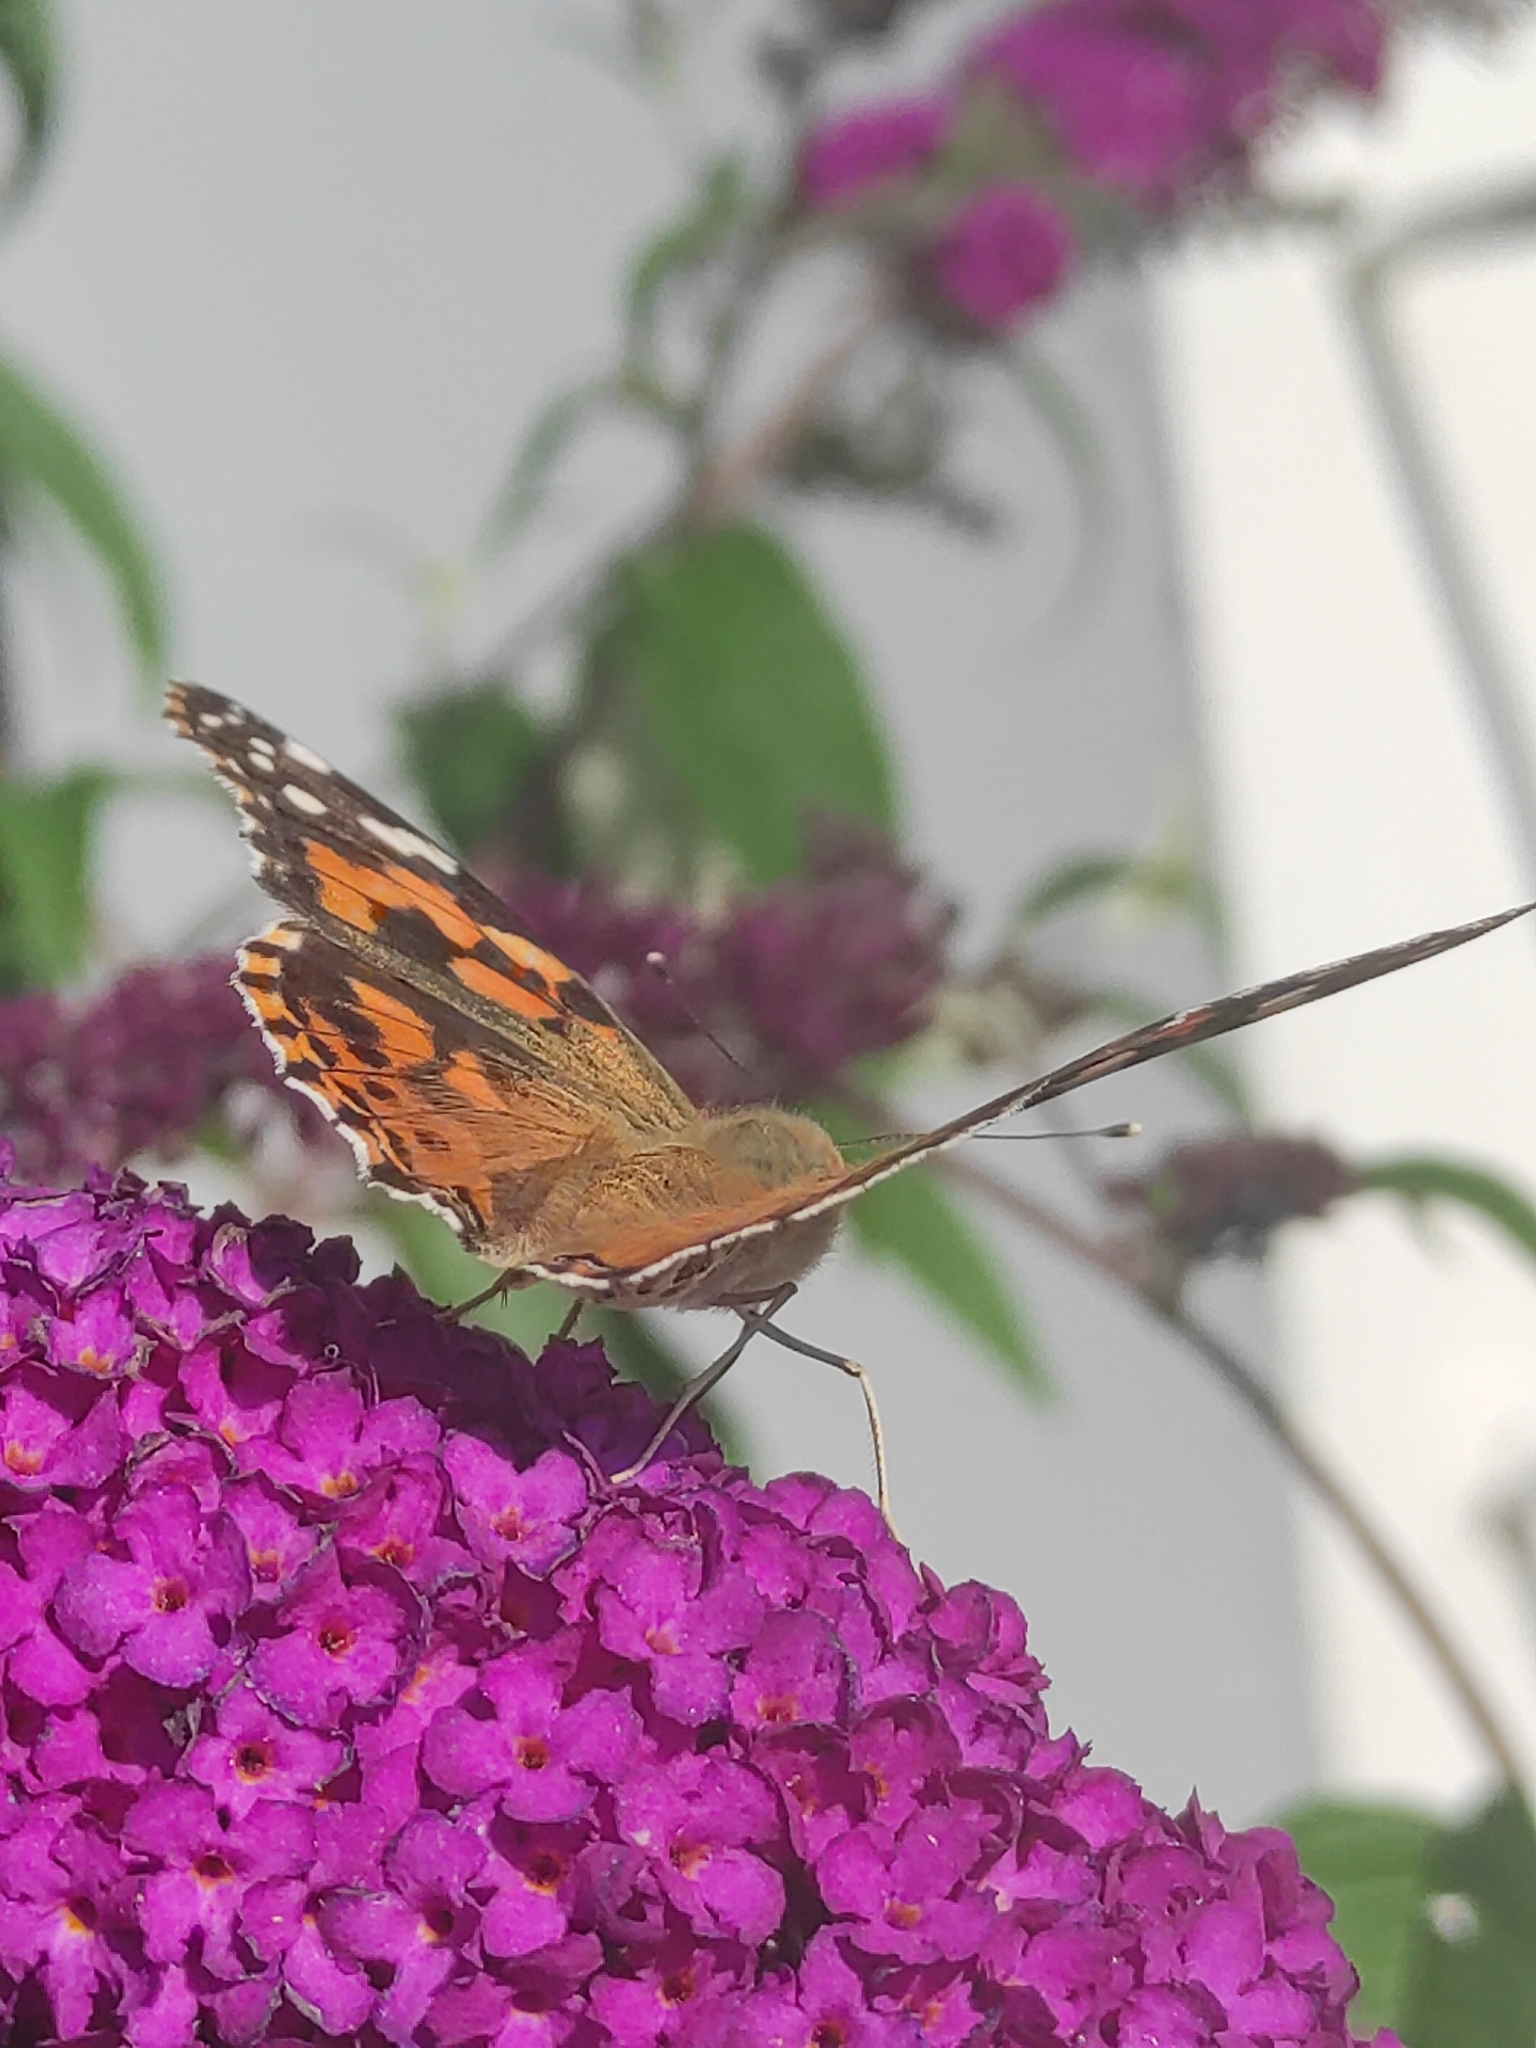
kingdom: Animalia
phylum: Arthropoda
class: Insecta
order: Lepidoptera
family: Nymphalidae
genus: Vanessa
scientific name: Vanessa cardui
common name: Painted lady
